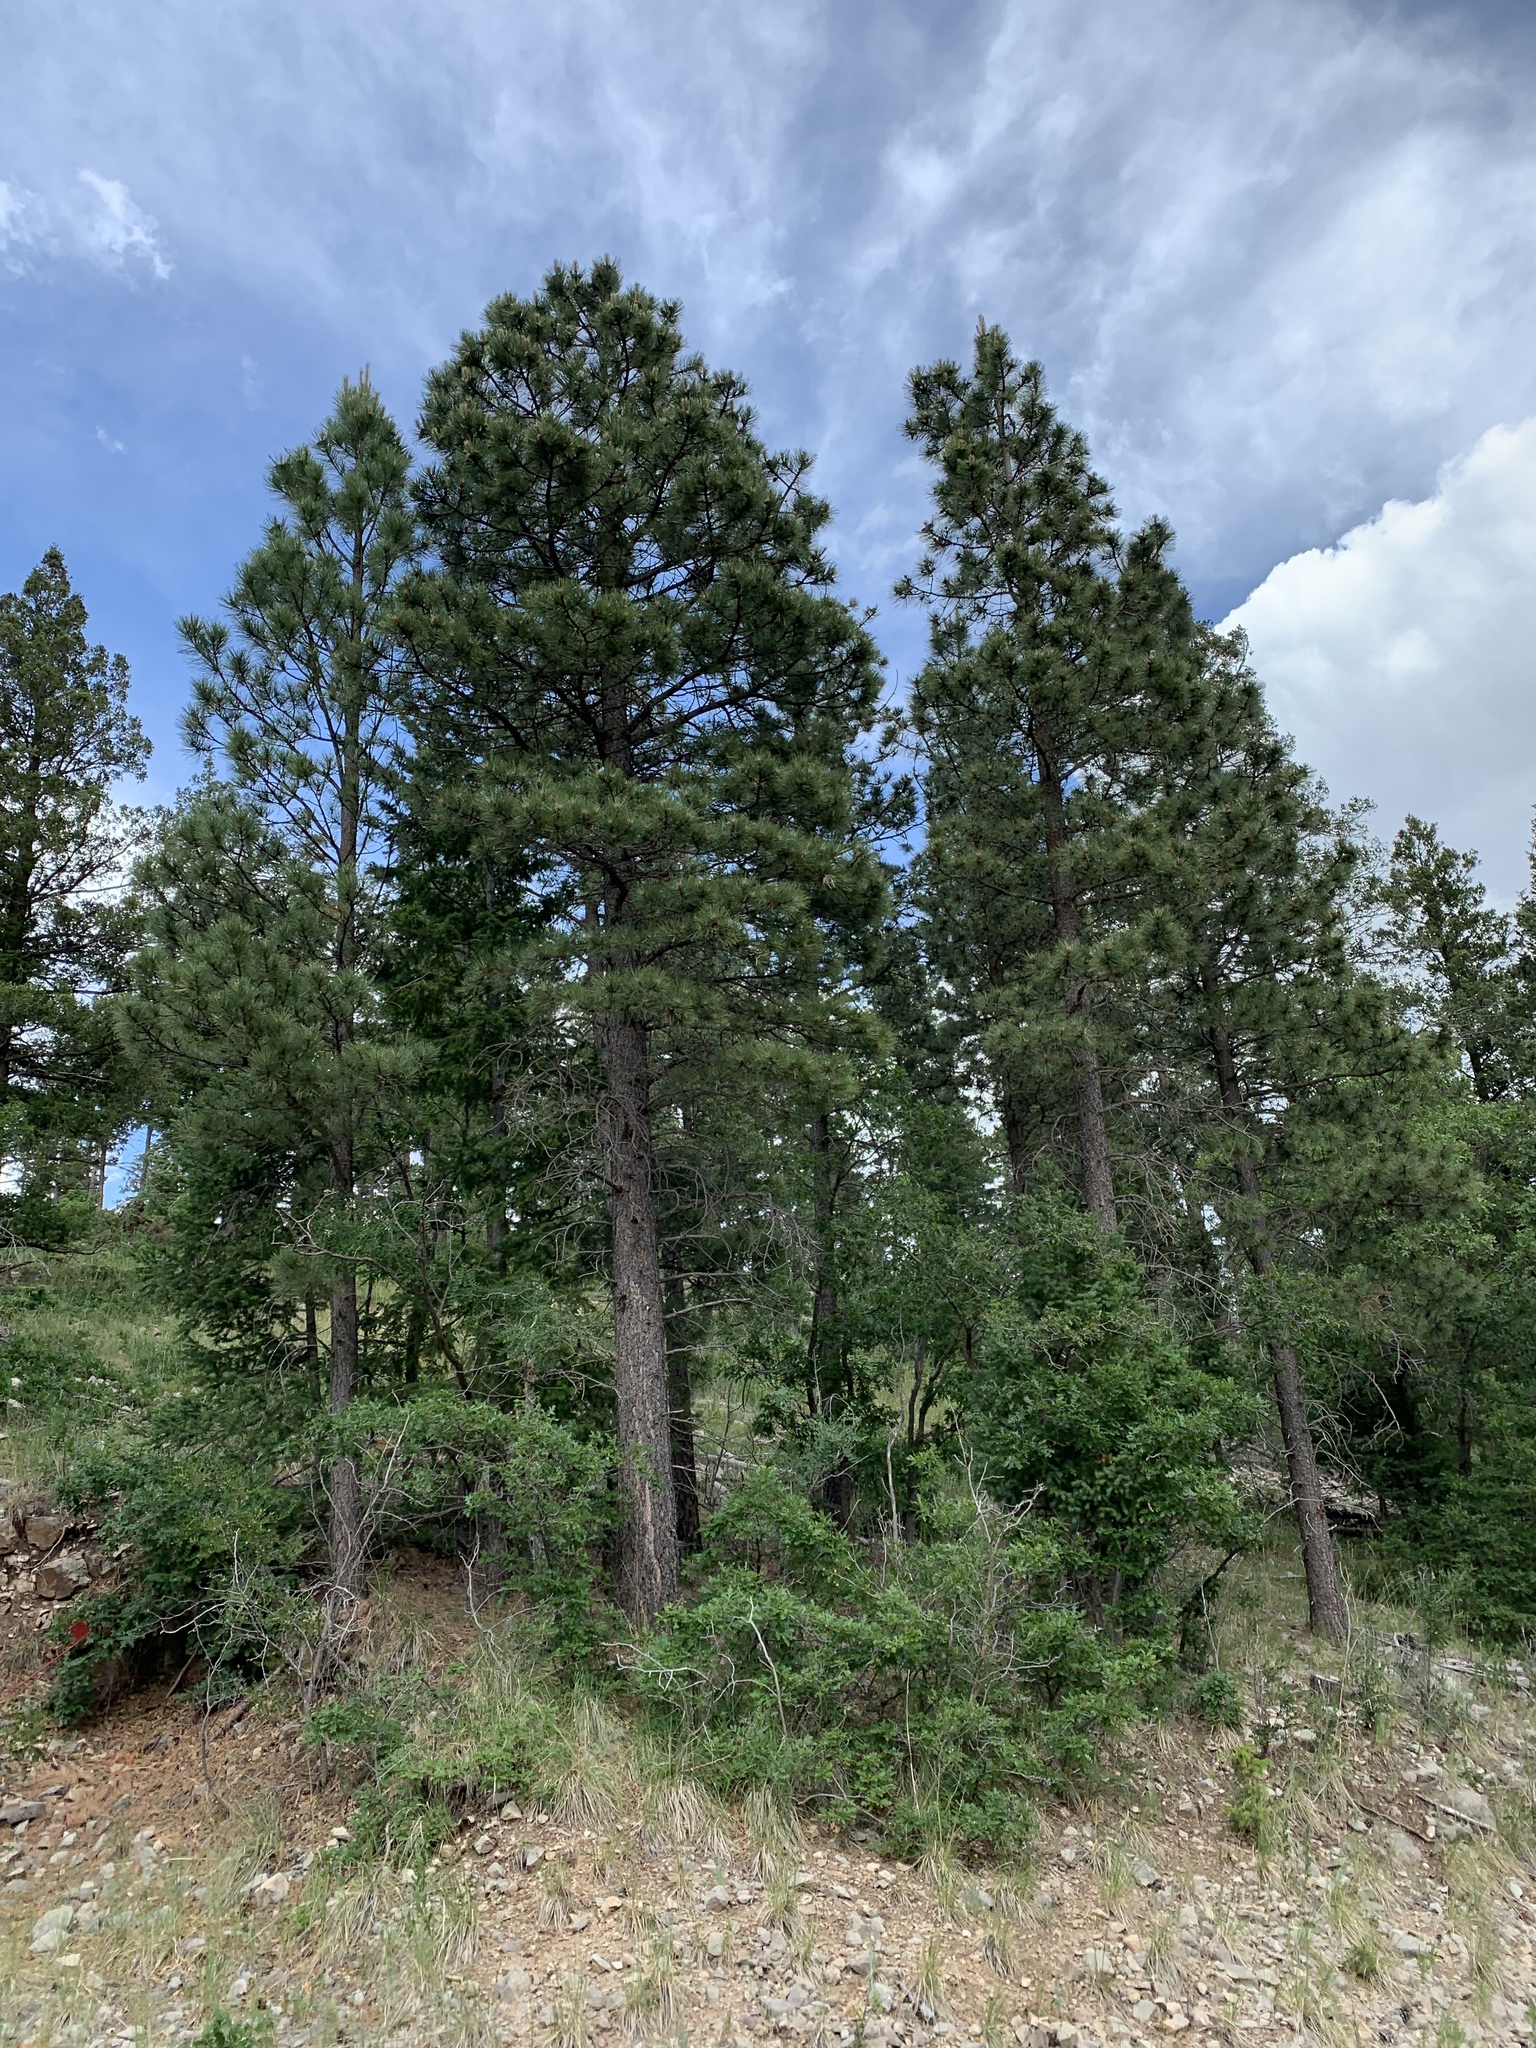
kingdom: Plantae
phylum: Tracheophyta
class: Pinopsida
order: Pinales
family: Pinaceae
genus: Pinus
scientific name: Pinus ponderosa
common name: Western yellow-pine
